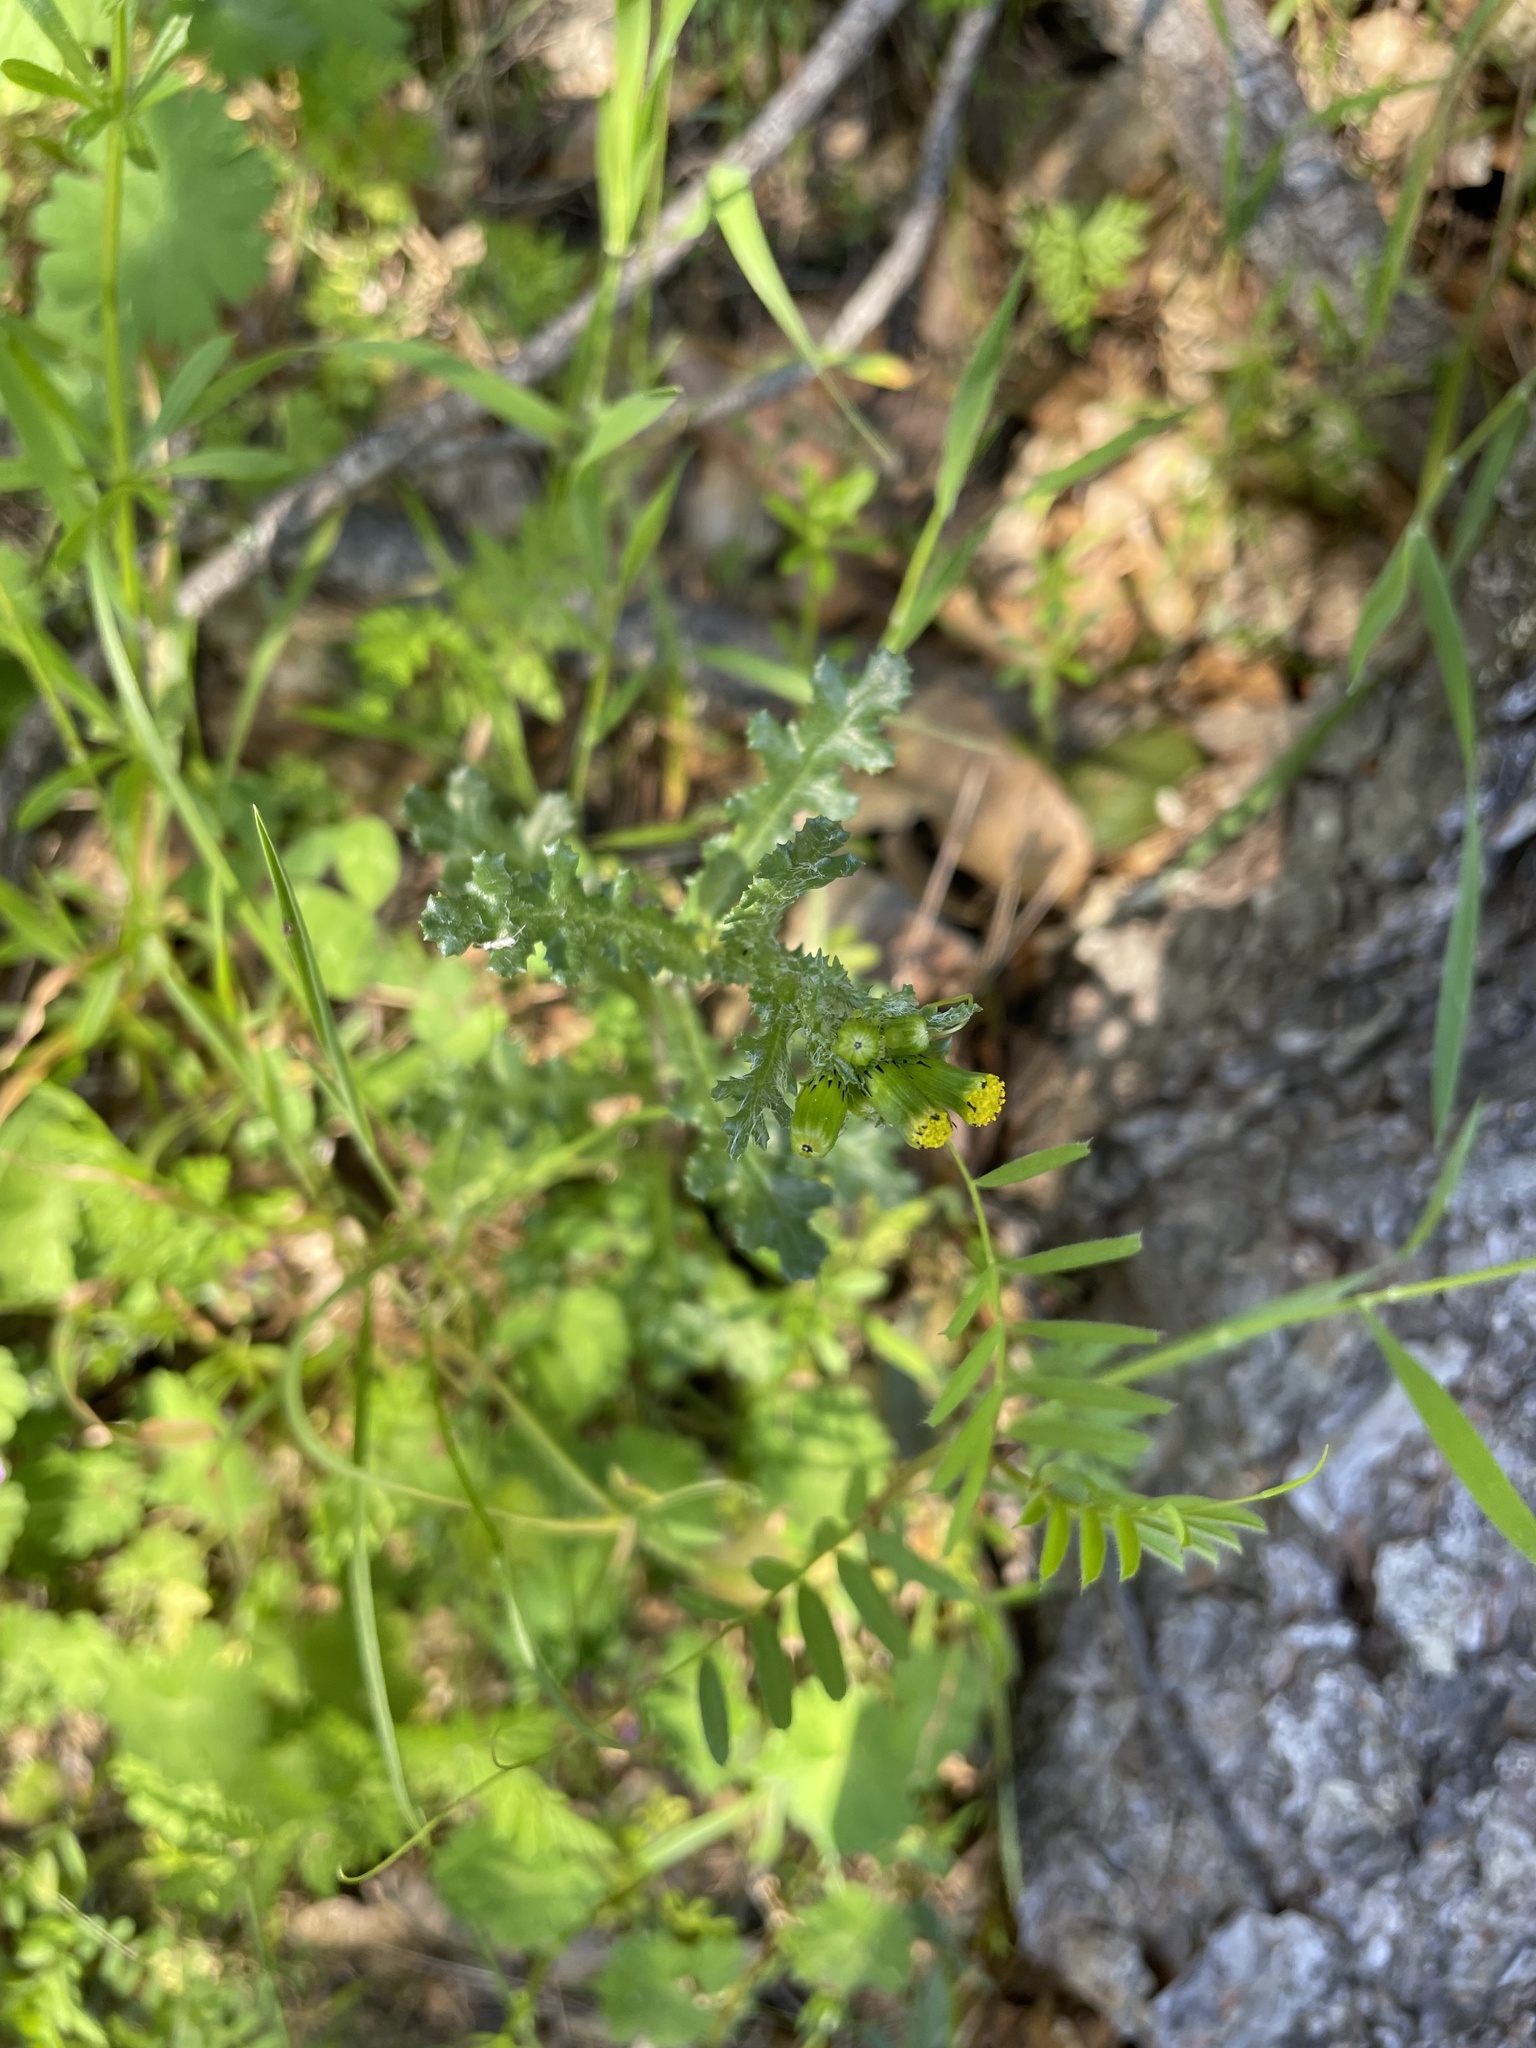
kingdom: Plantae
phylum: Tracheophyta
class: Magnoliopsida
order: Asterales
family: Asteraceae
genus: Senecio
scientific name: Senecio vulgaris
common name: Old-man-in-the-spring
